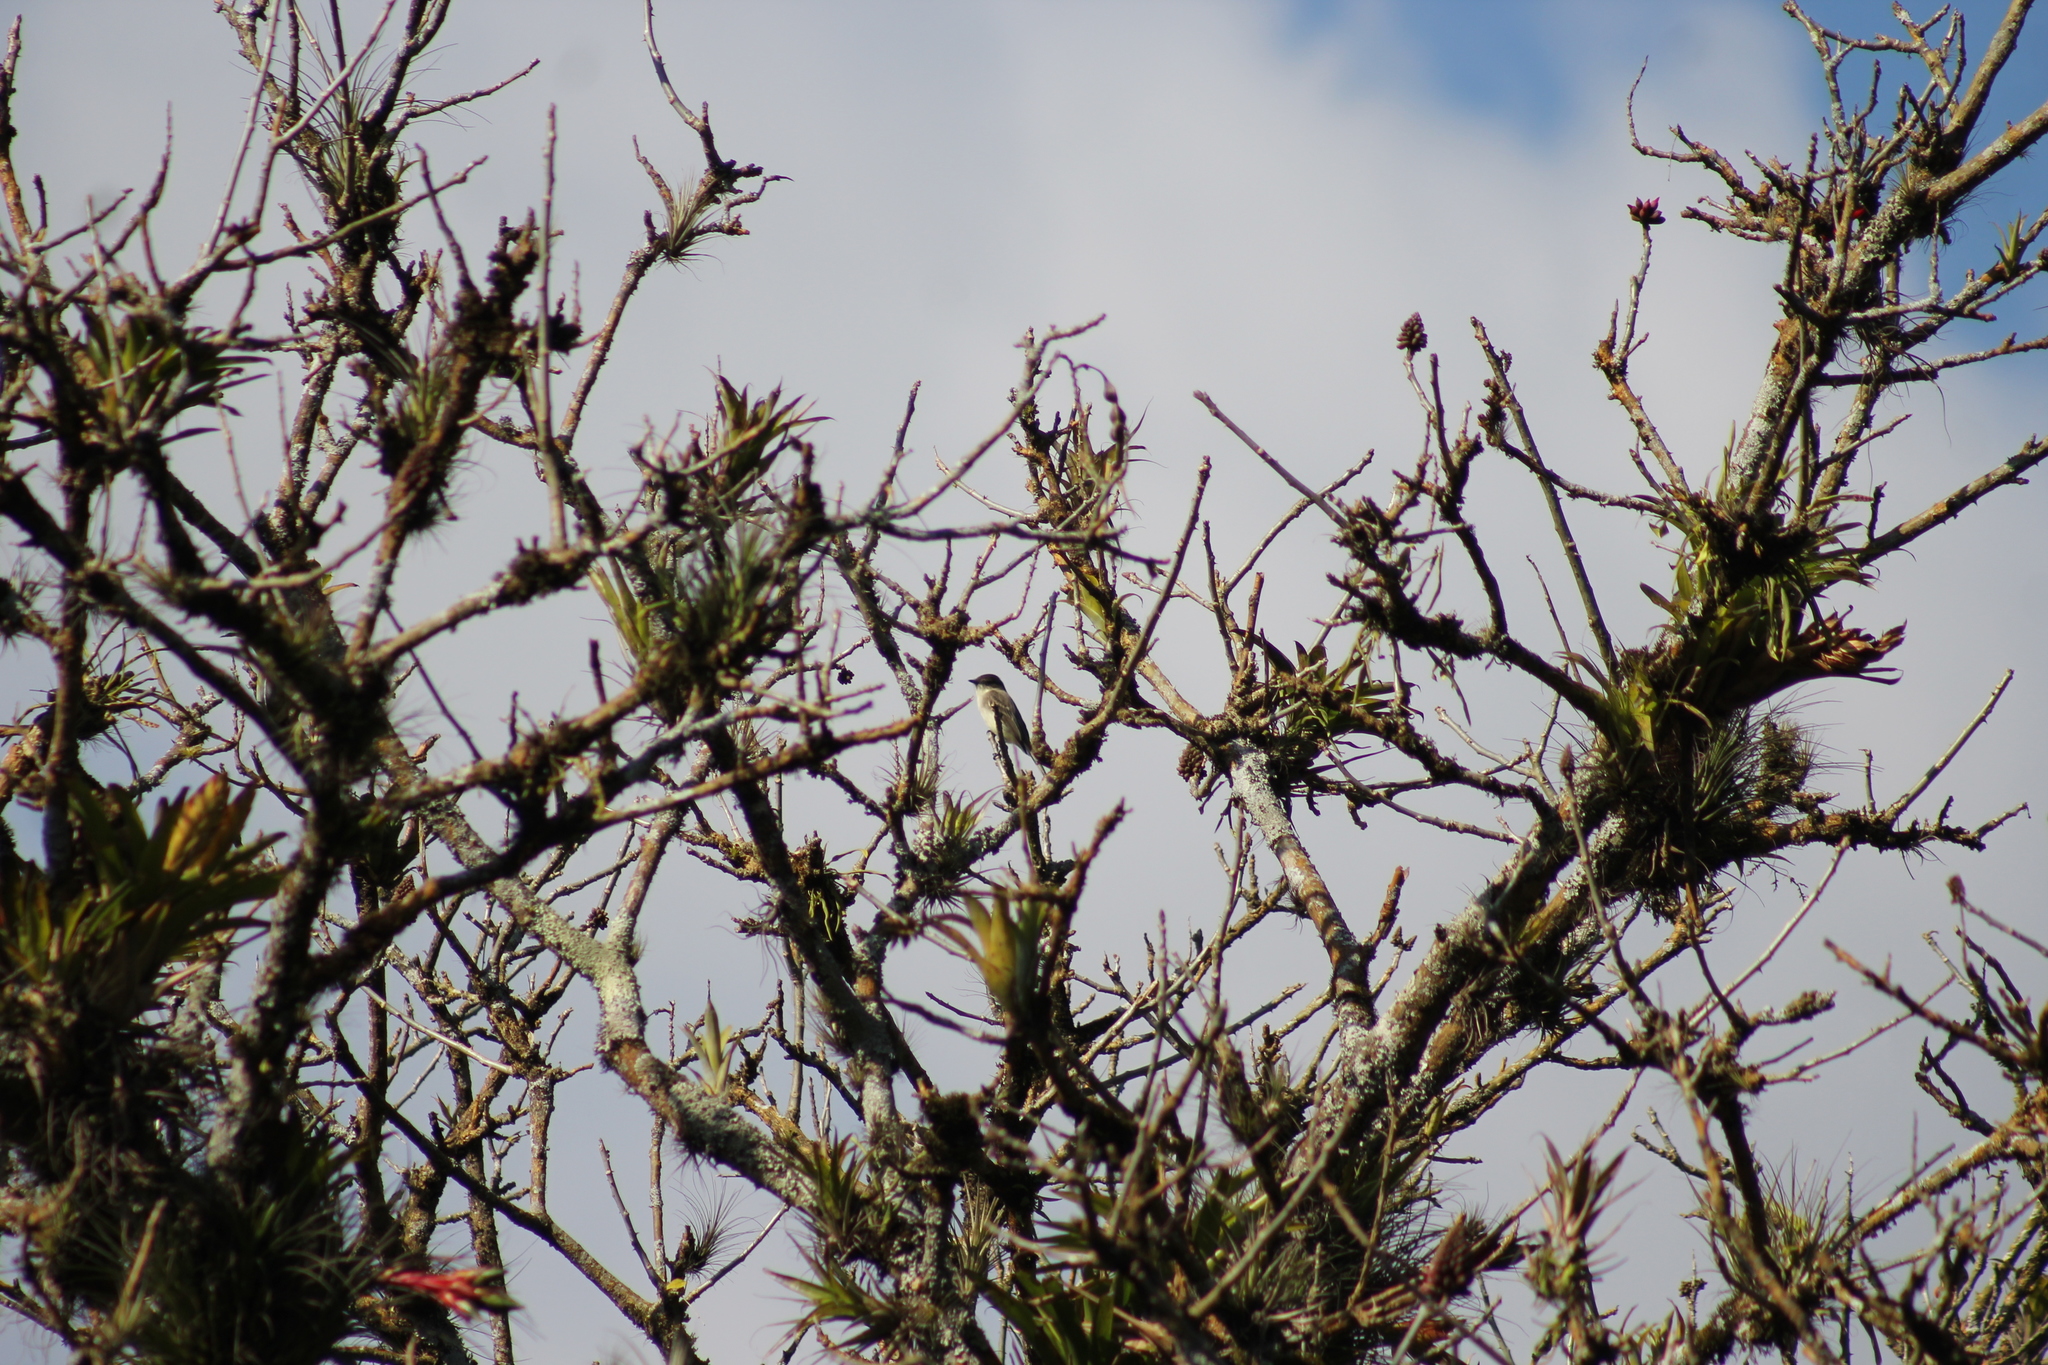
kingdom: Animalia
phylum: Chordata
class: Aves
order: Passeriformes
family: Tyrannidae
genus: Sayornis
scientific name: Sayornis phoebe
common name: Eastern phoebe
